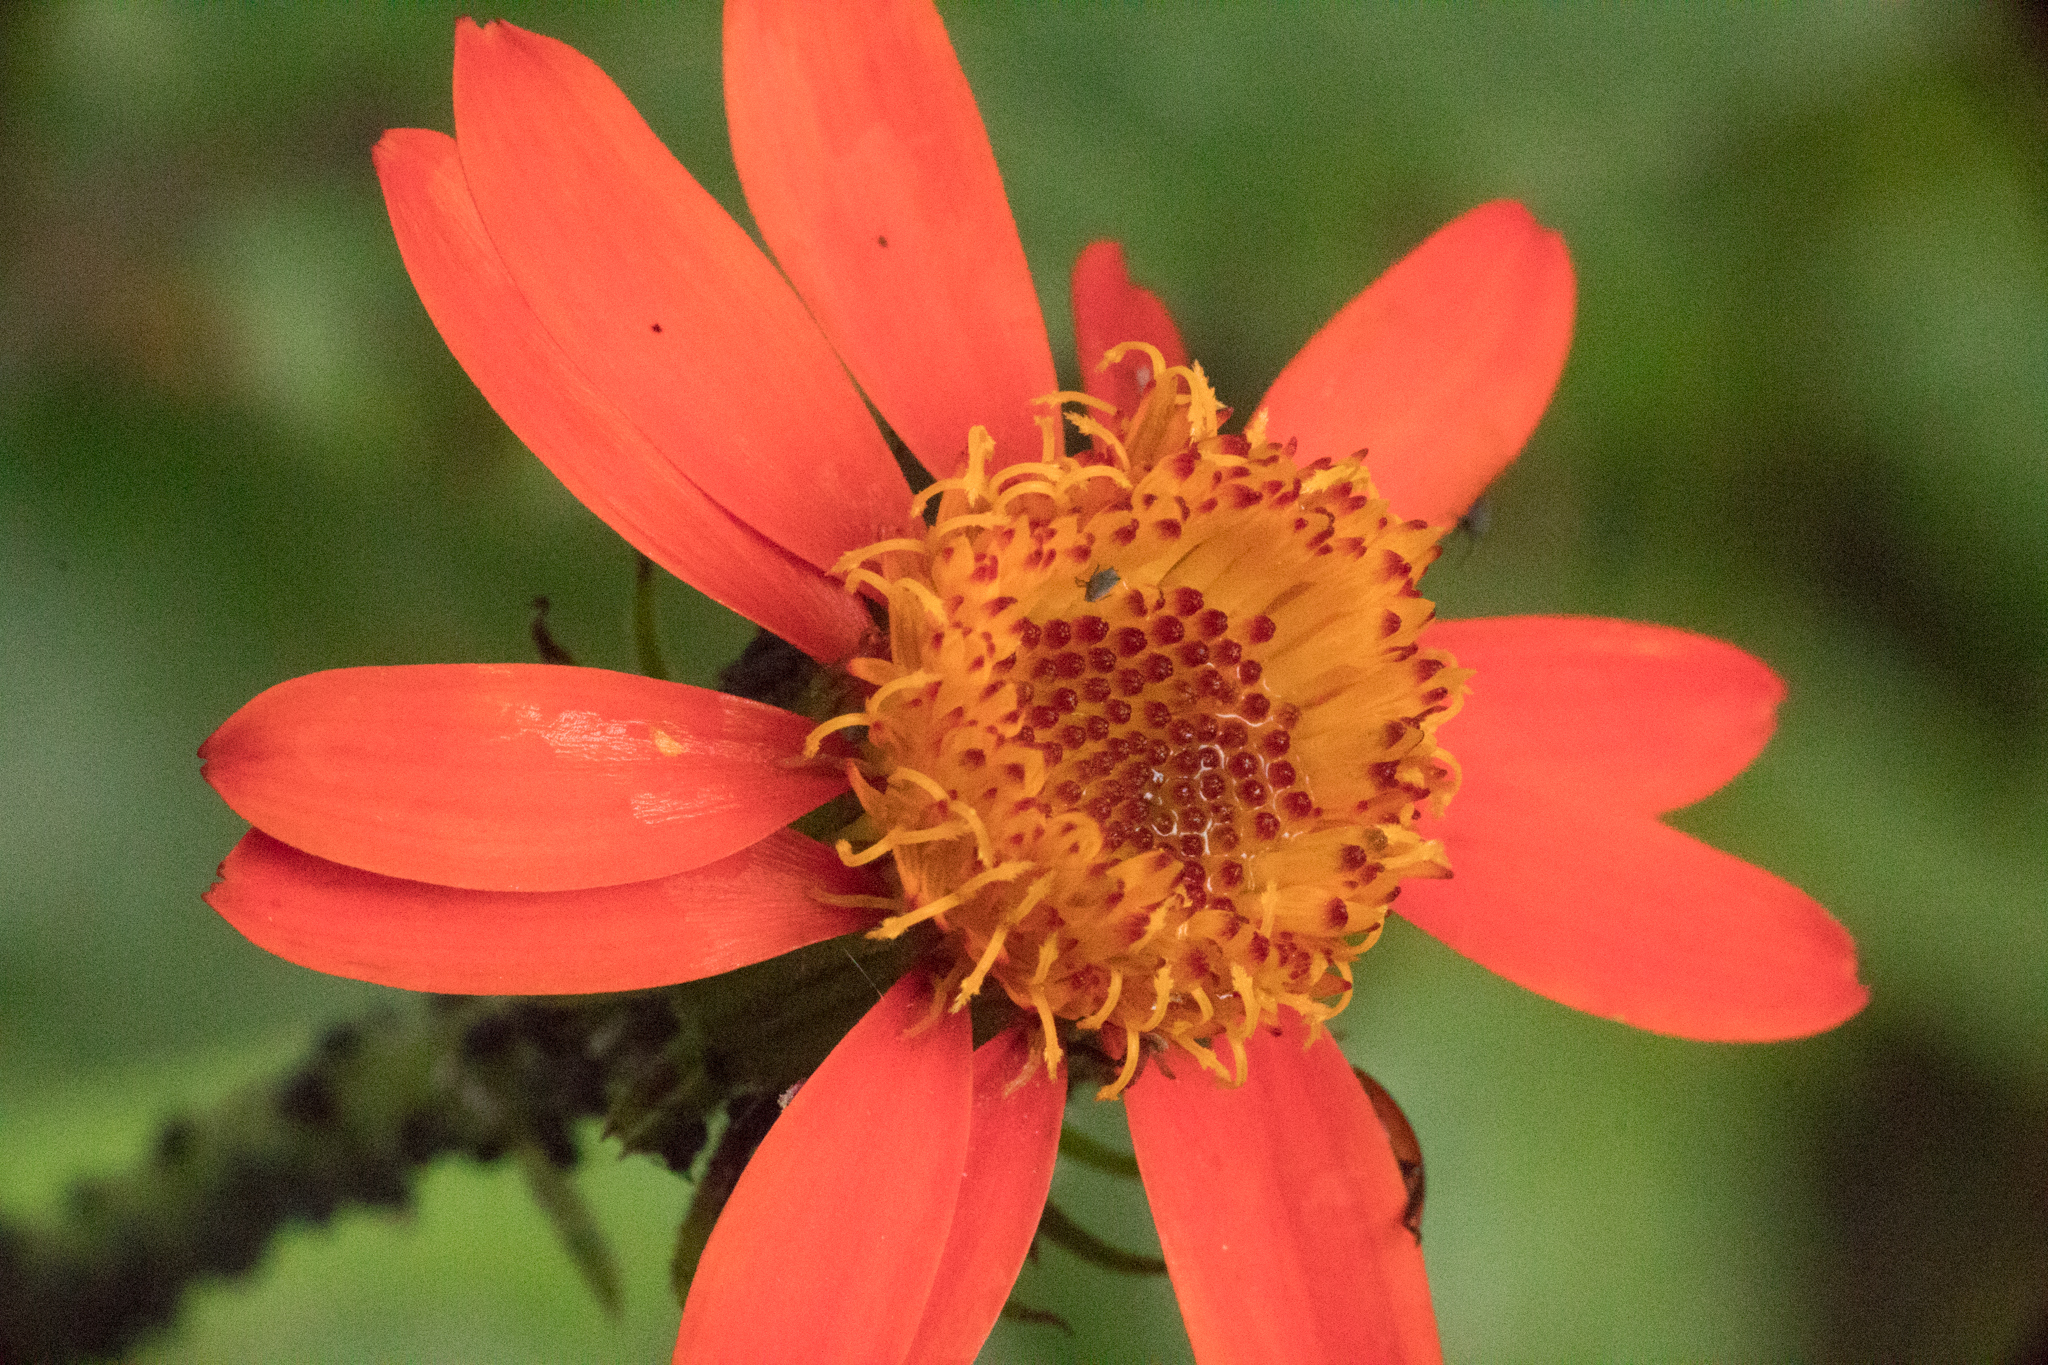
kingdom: Plantae
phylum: Tracheophyta
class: Magnoliopsida
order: Asterales
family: Asteraceae
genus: Pseudogynoxys
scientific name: Pseudogynoxys cumingii
